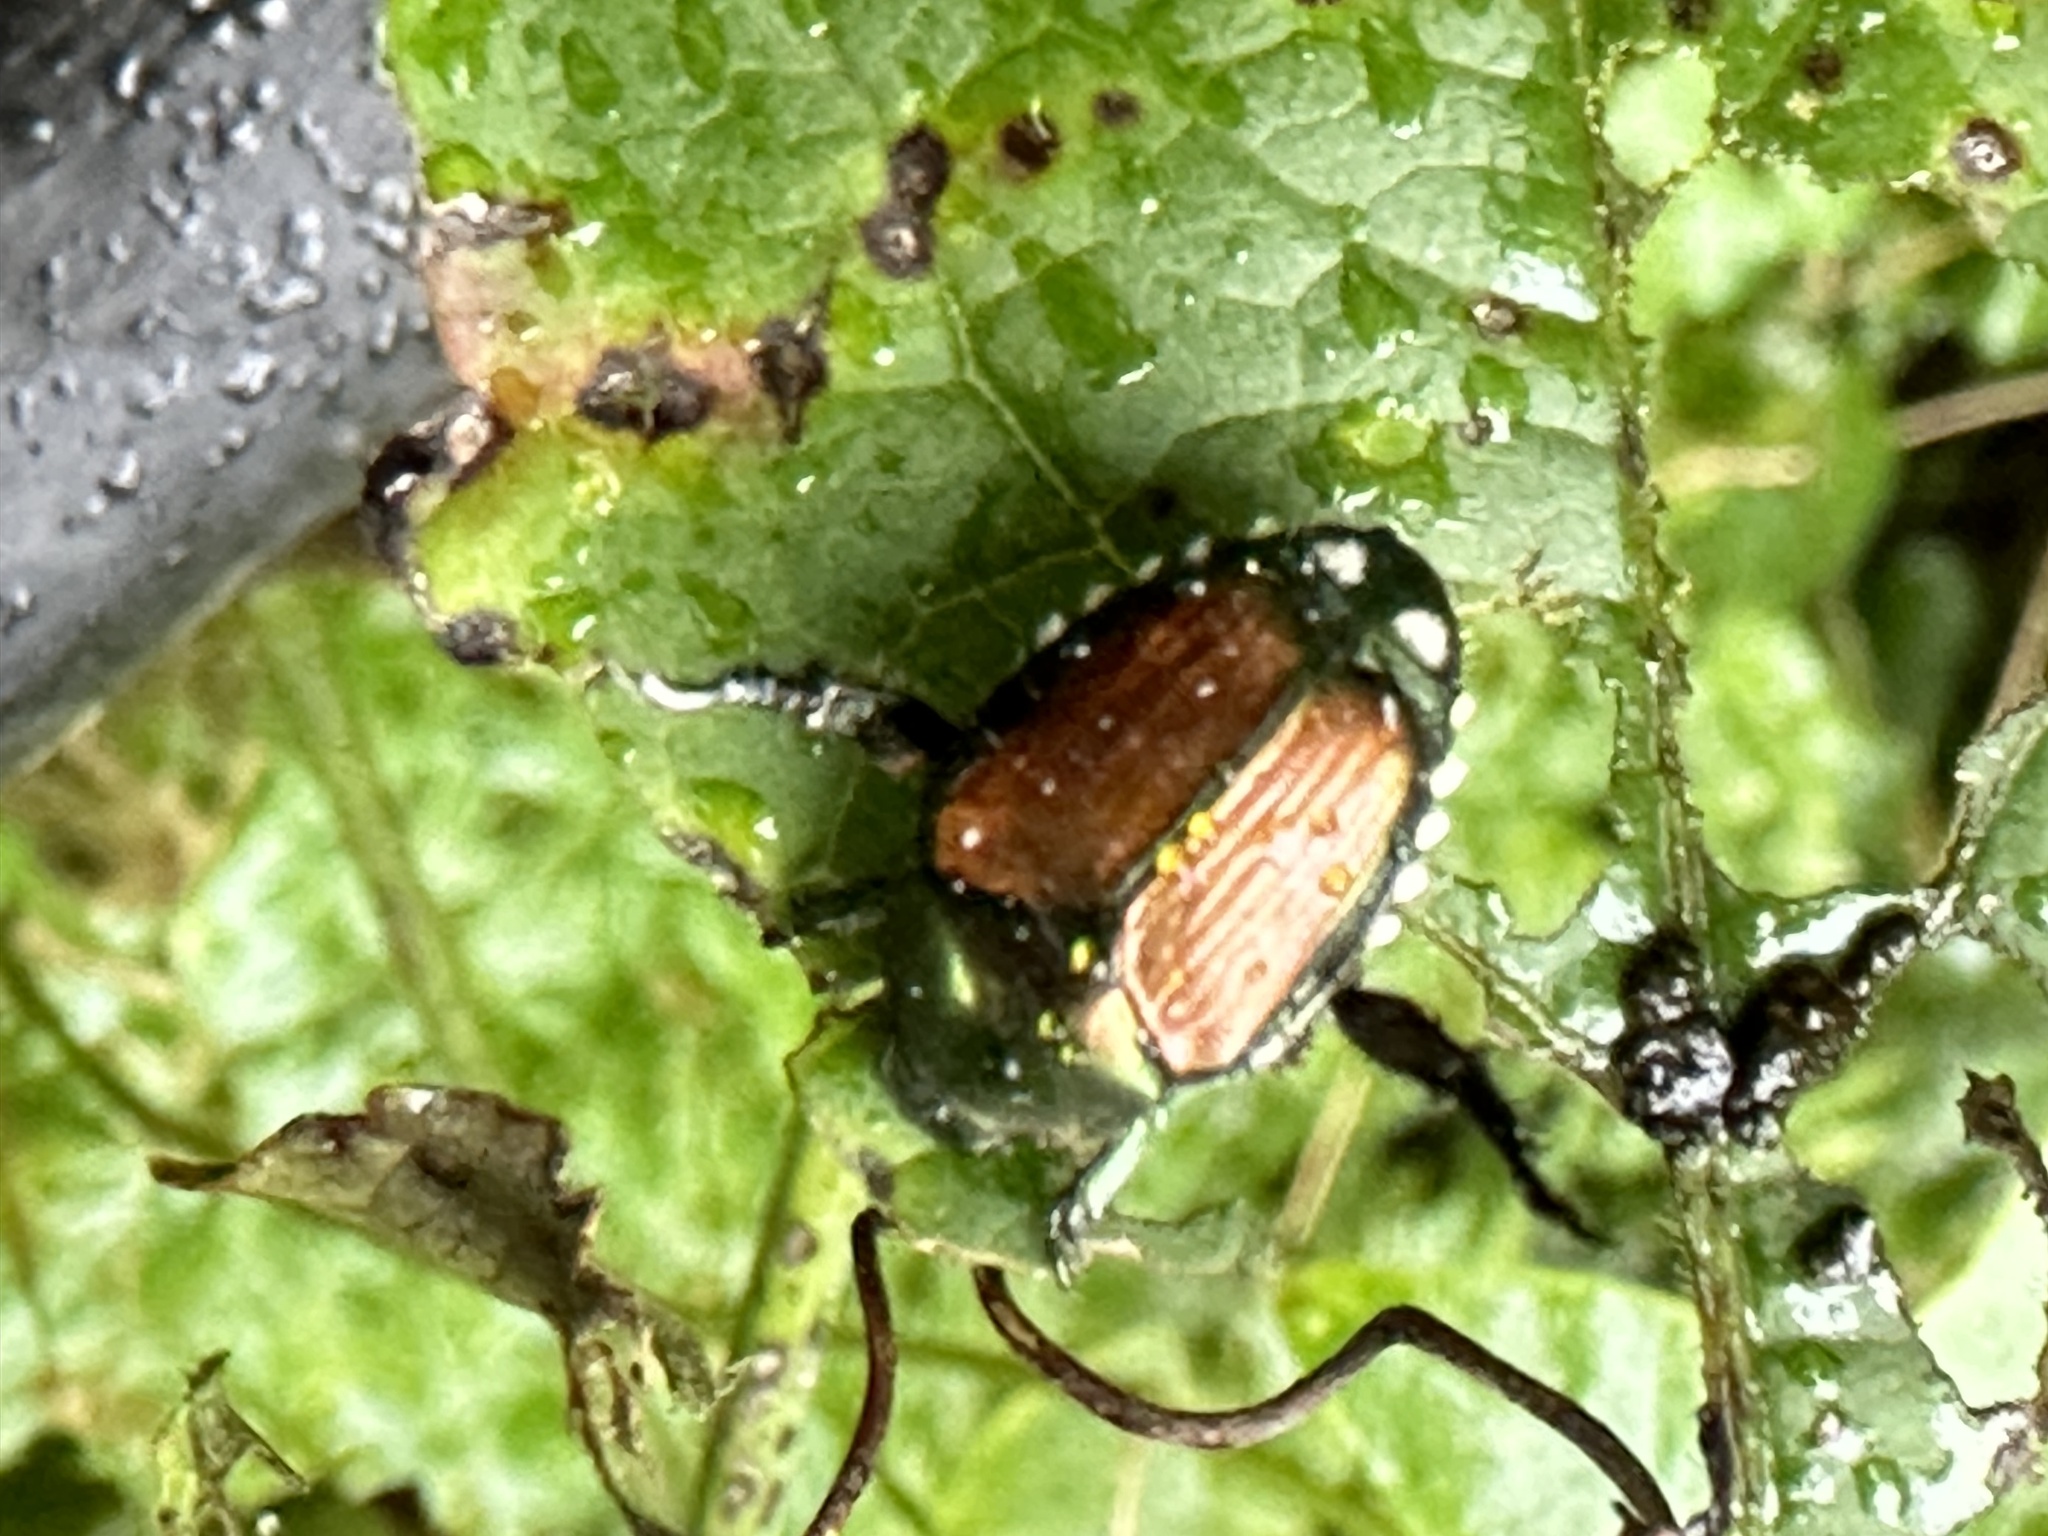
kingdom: Animalia
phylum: Arthropoda
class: Insecta
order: Coleoptera
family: Scarabaeidae
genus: Popillia
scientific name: Popillia japonica
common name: Japanese beetle
